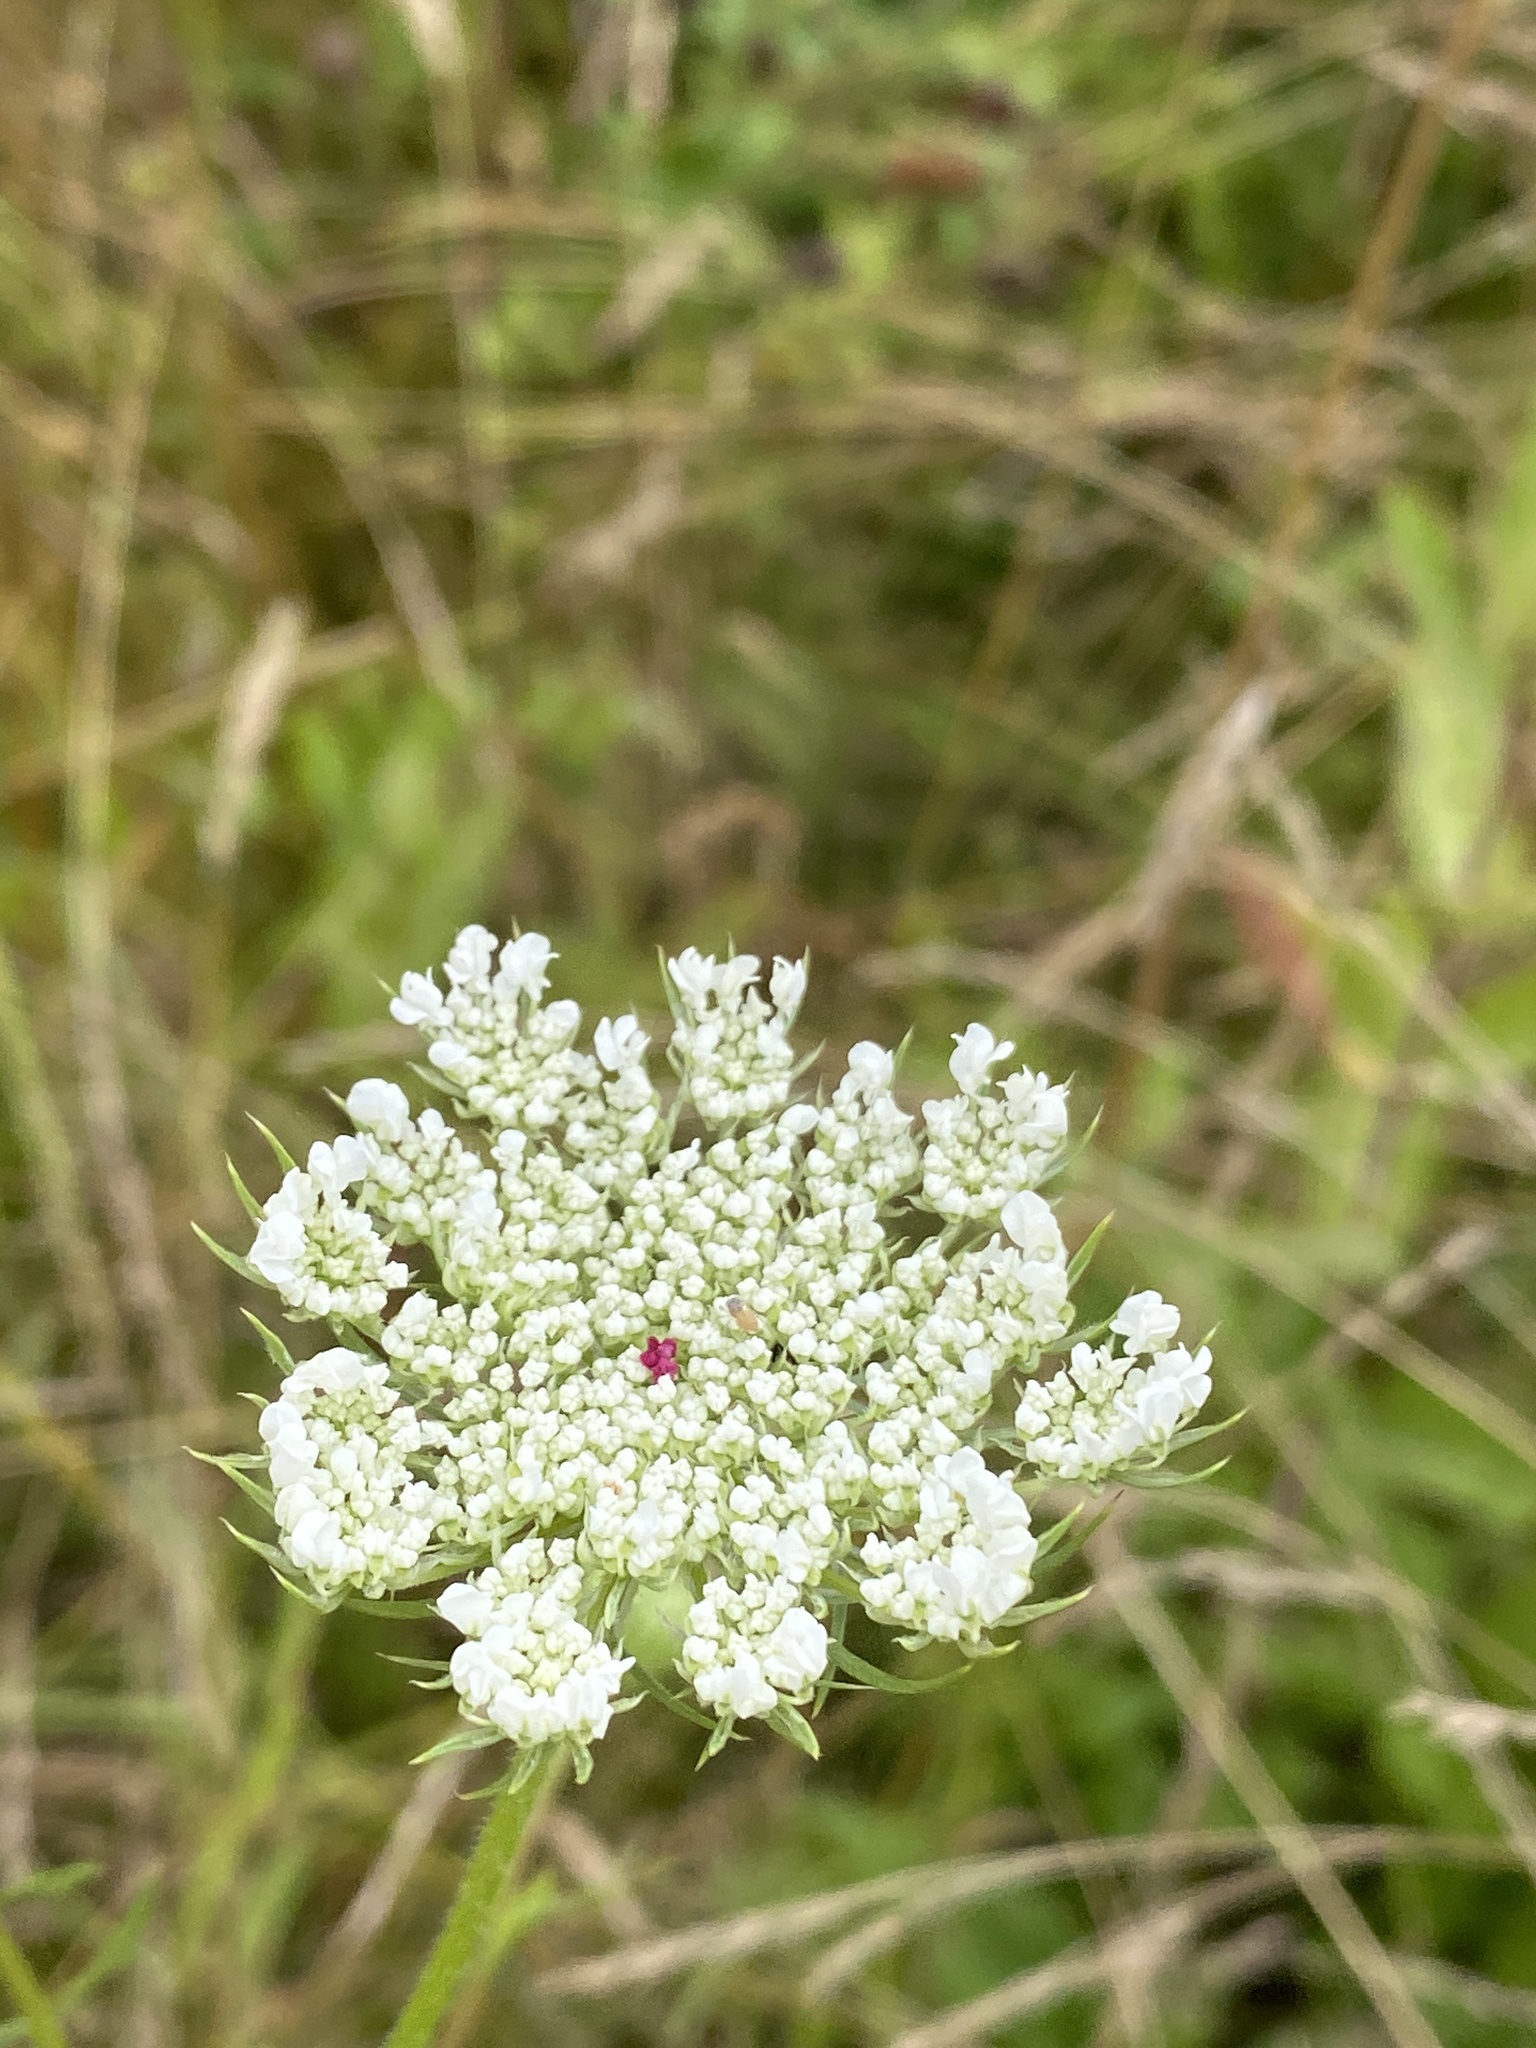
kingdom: Plantae
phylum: Tracheophyta
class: Magnoliopsida
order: Apiales
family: Apiaceae
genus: Daucus
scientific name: Daucus carota
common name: Wild carrot
